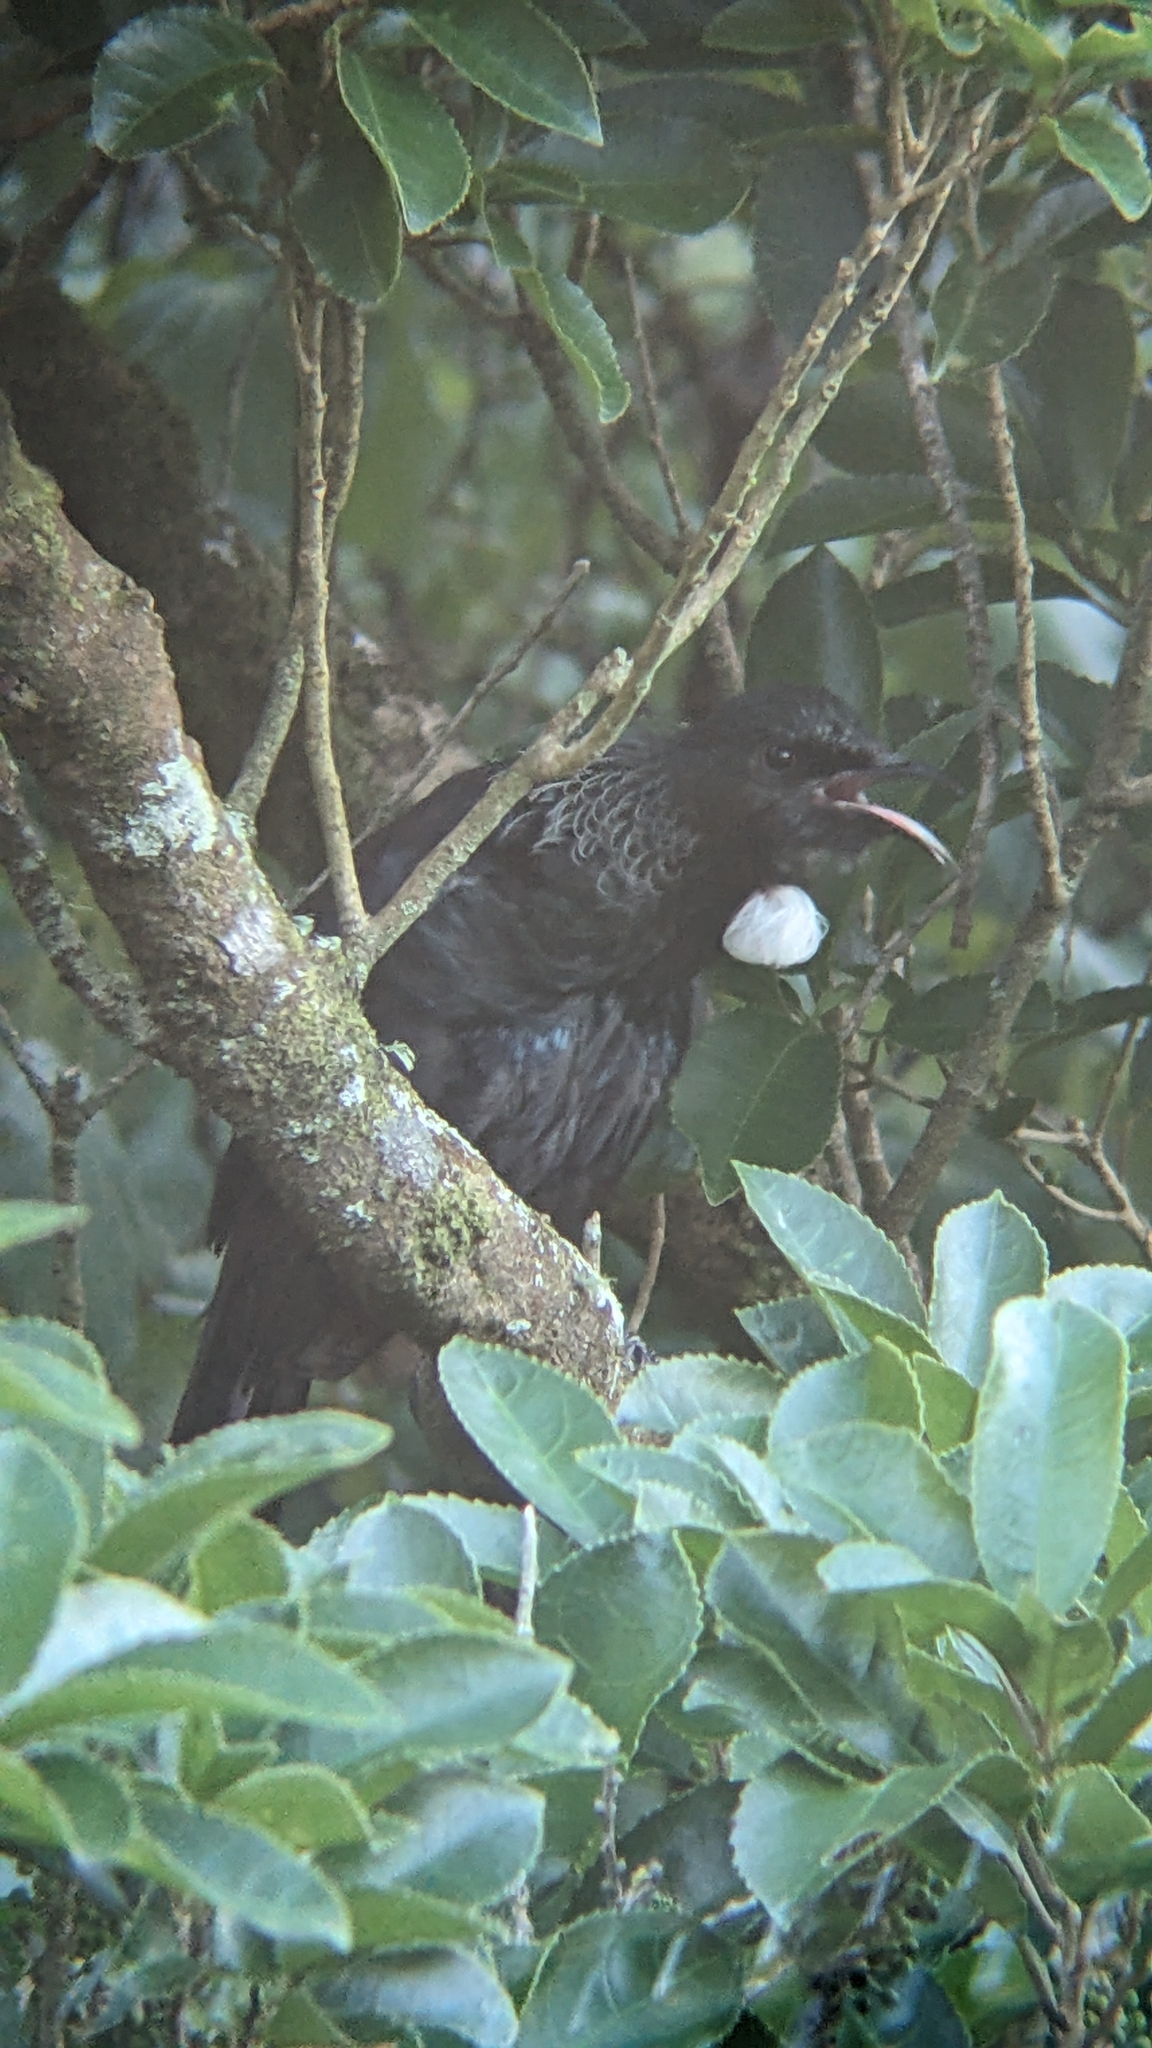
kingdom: Animalia
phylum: Chordata
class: Aves
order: Passeriformes
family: Meliphagidae
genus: Prosthemadera
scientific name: Prosthemadera novaeseelandiae
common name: Tui
